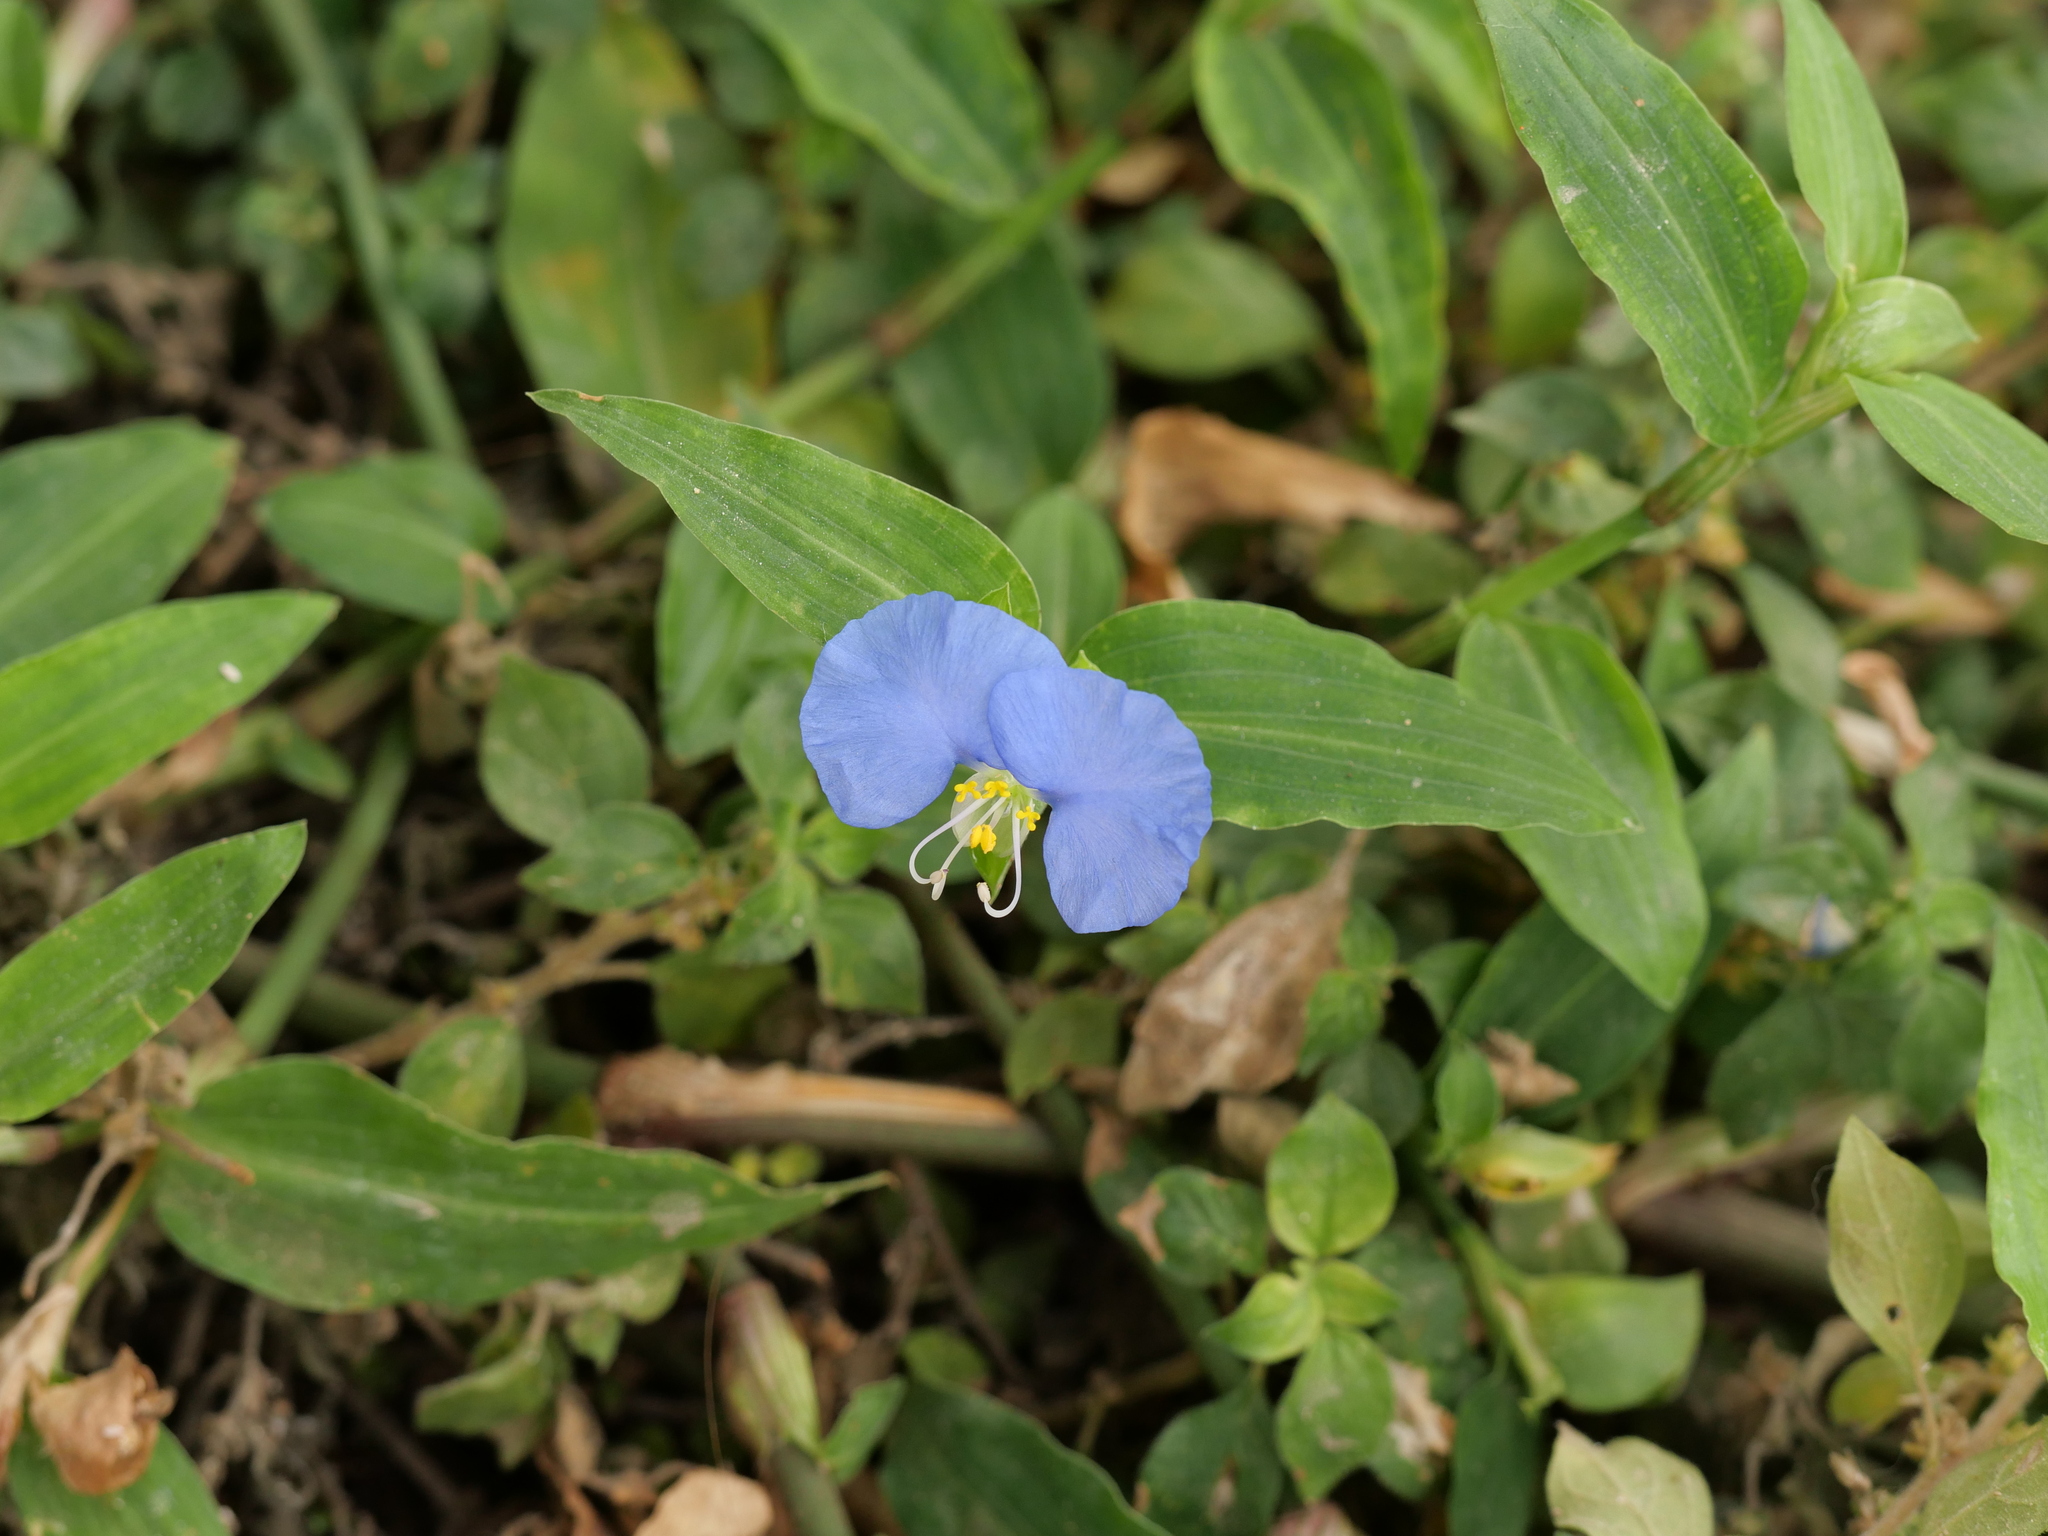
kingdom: Plantae
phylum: Tracheophyta
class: Liliopsida
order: Commelinales
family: Commelinaceae
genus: Commelina
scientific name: Commelina erecta
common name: Blousel blommetjie
